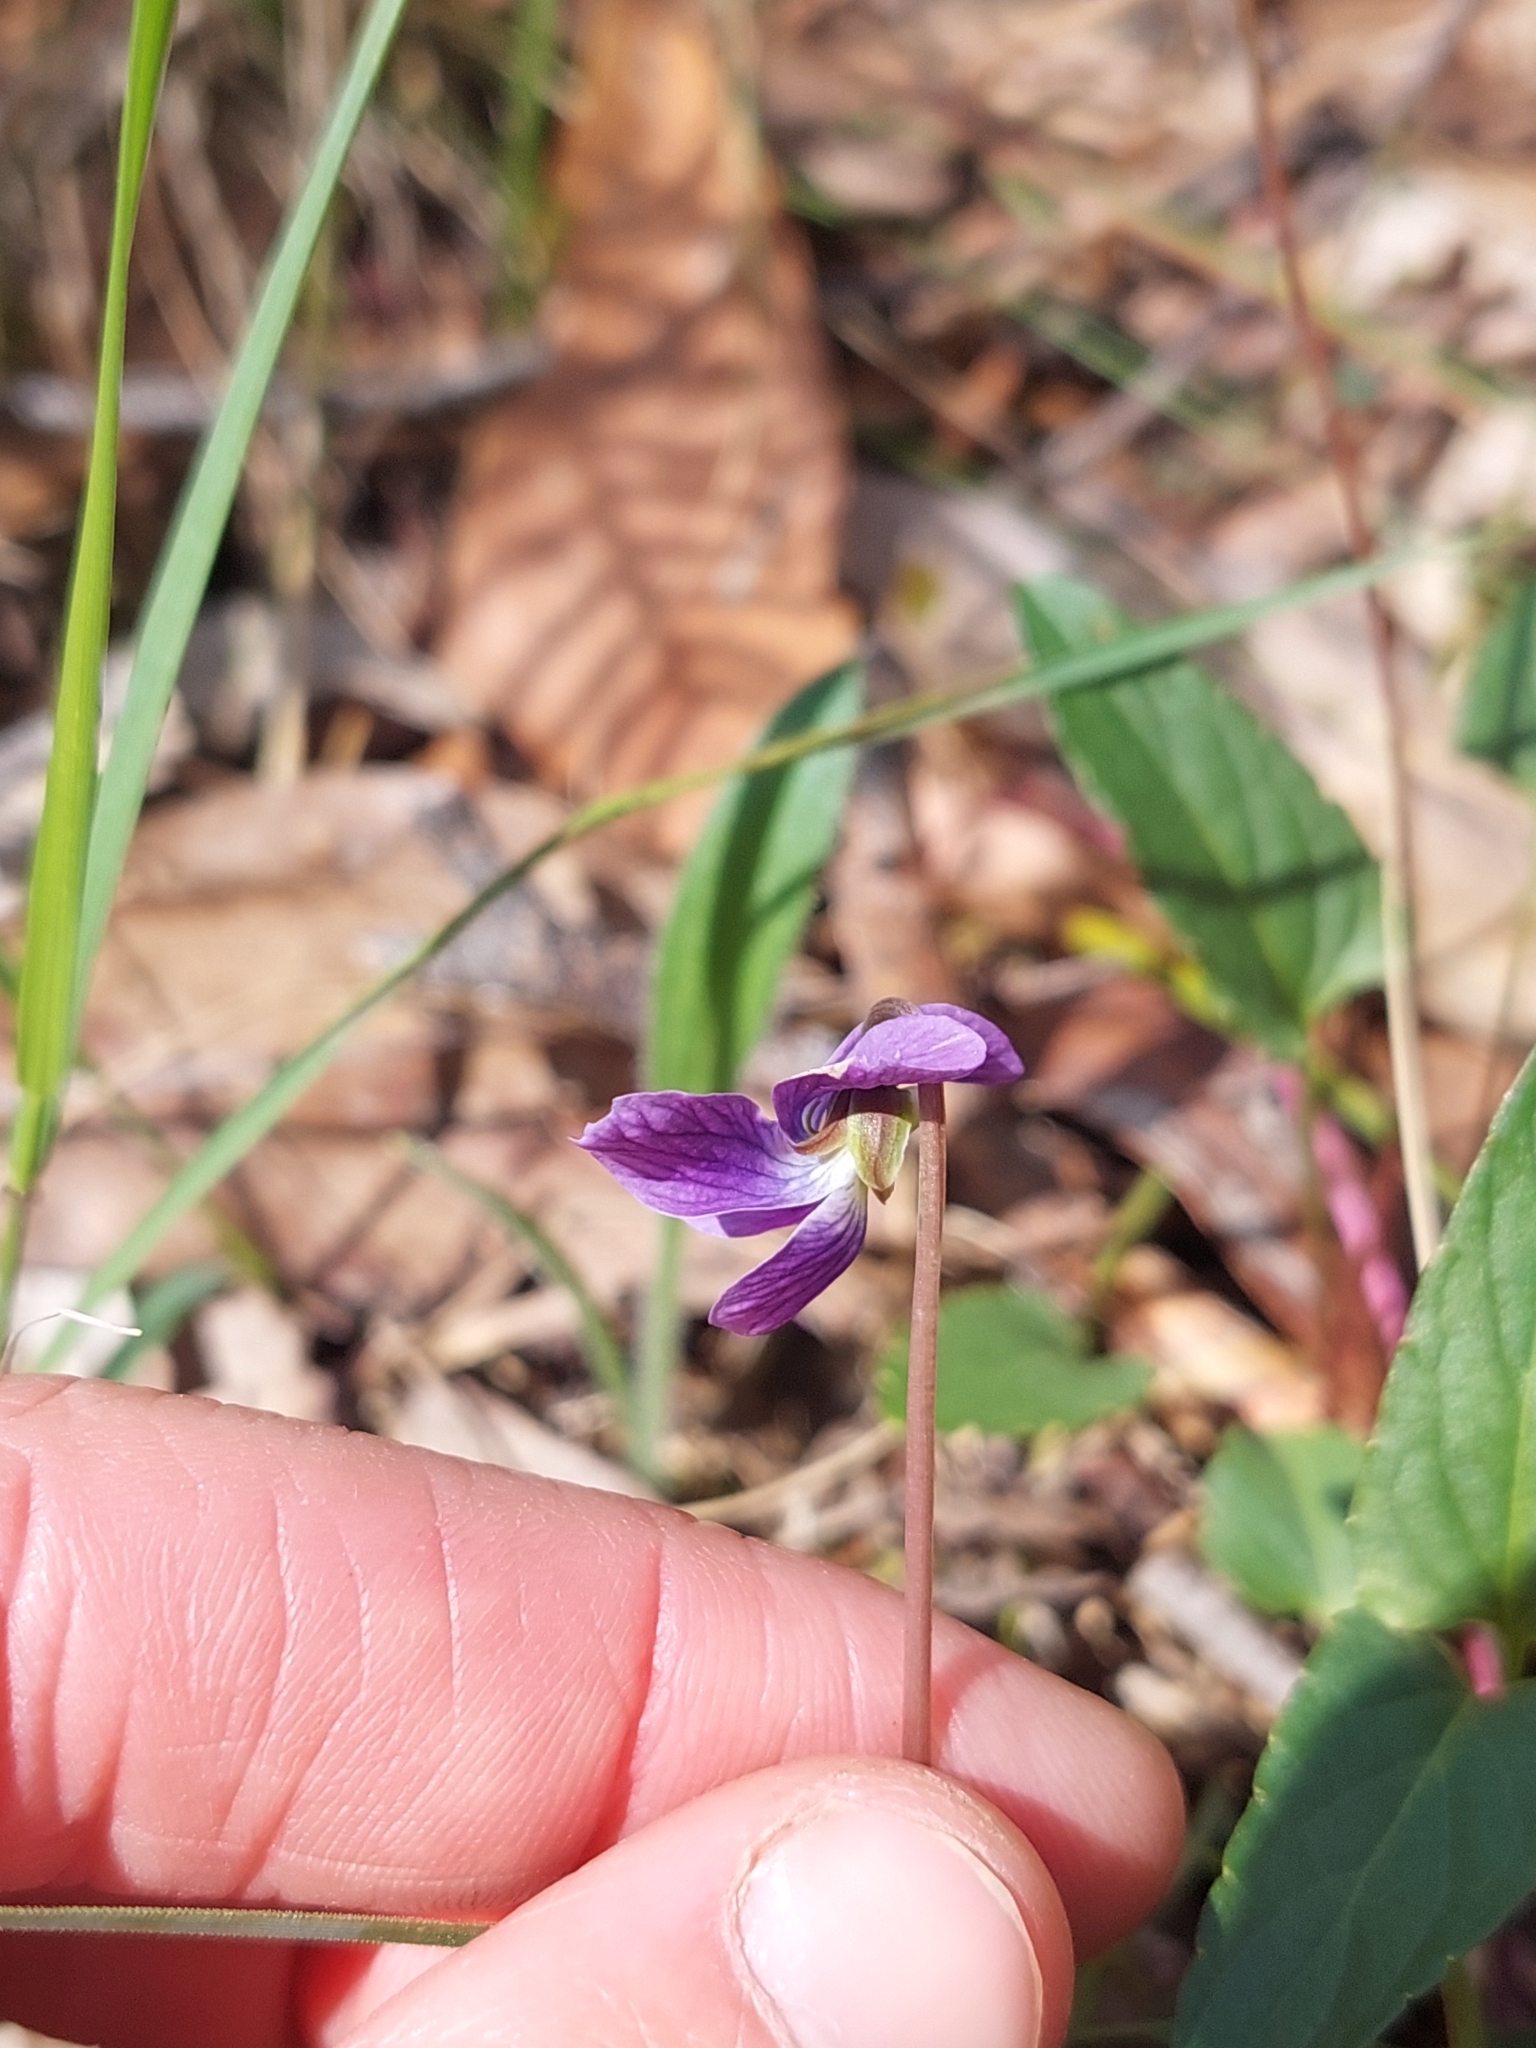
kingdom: Plantae
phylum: Tracheophyta
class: Magnoliopsida
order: Malpighiales
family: Violaceae
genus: Viola
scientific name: Viola betonicifolia
